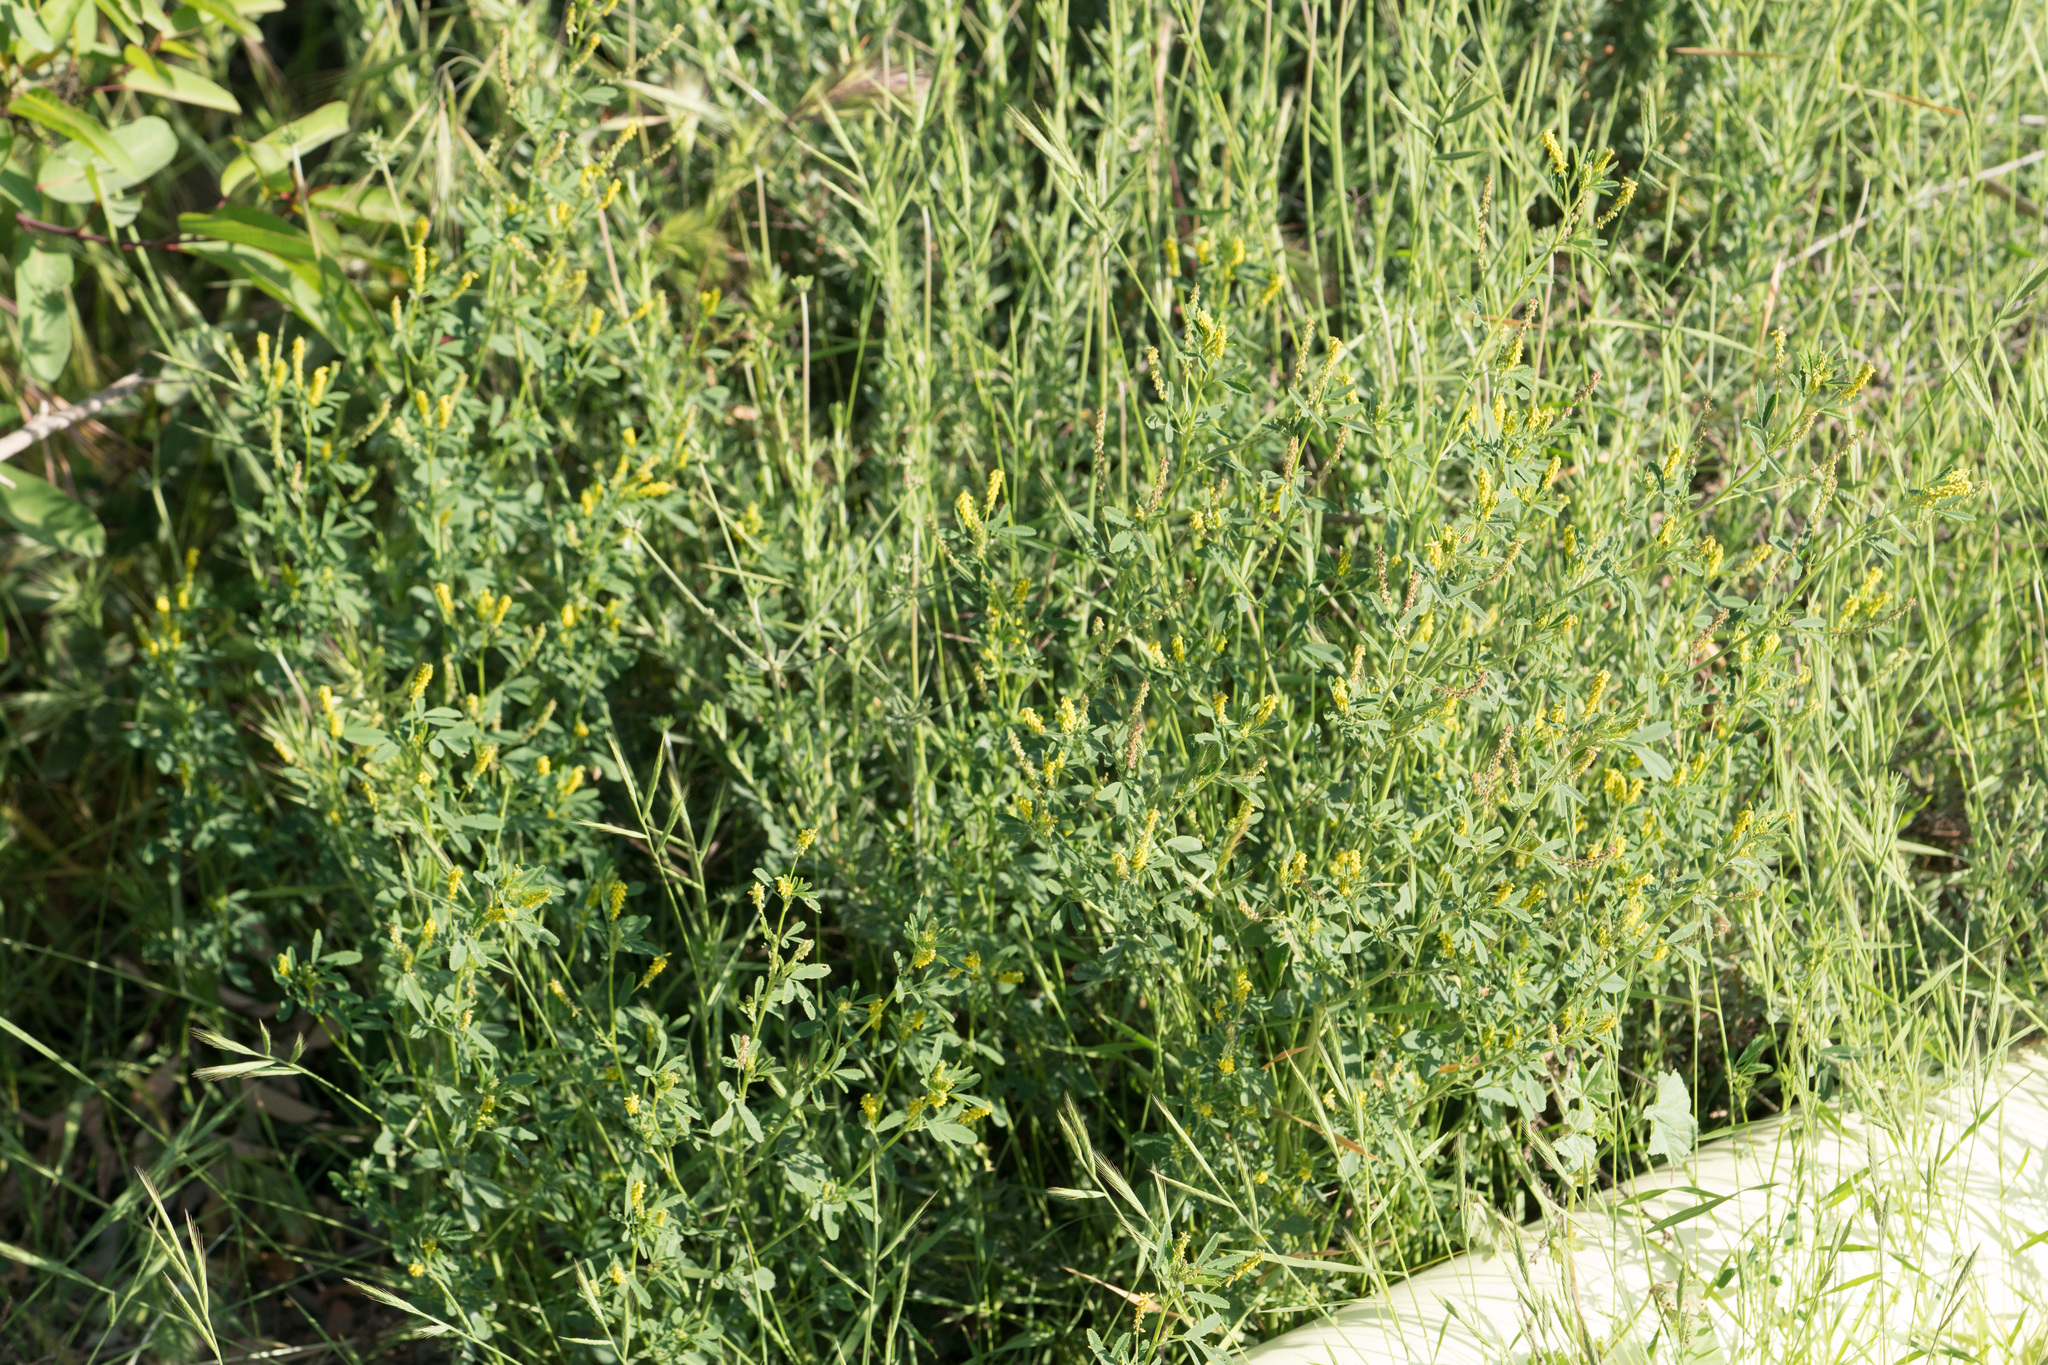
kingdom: Plantae
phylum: Tracheophyta
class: Magnoliopsida
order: Fabales
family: Fabaceae
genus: Melilotus
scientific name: Melilotus indicus
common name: Small melilot
